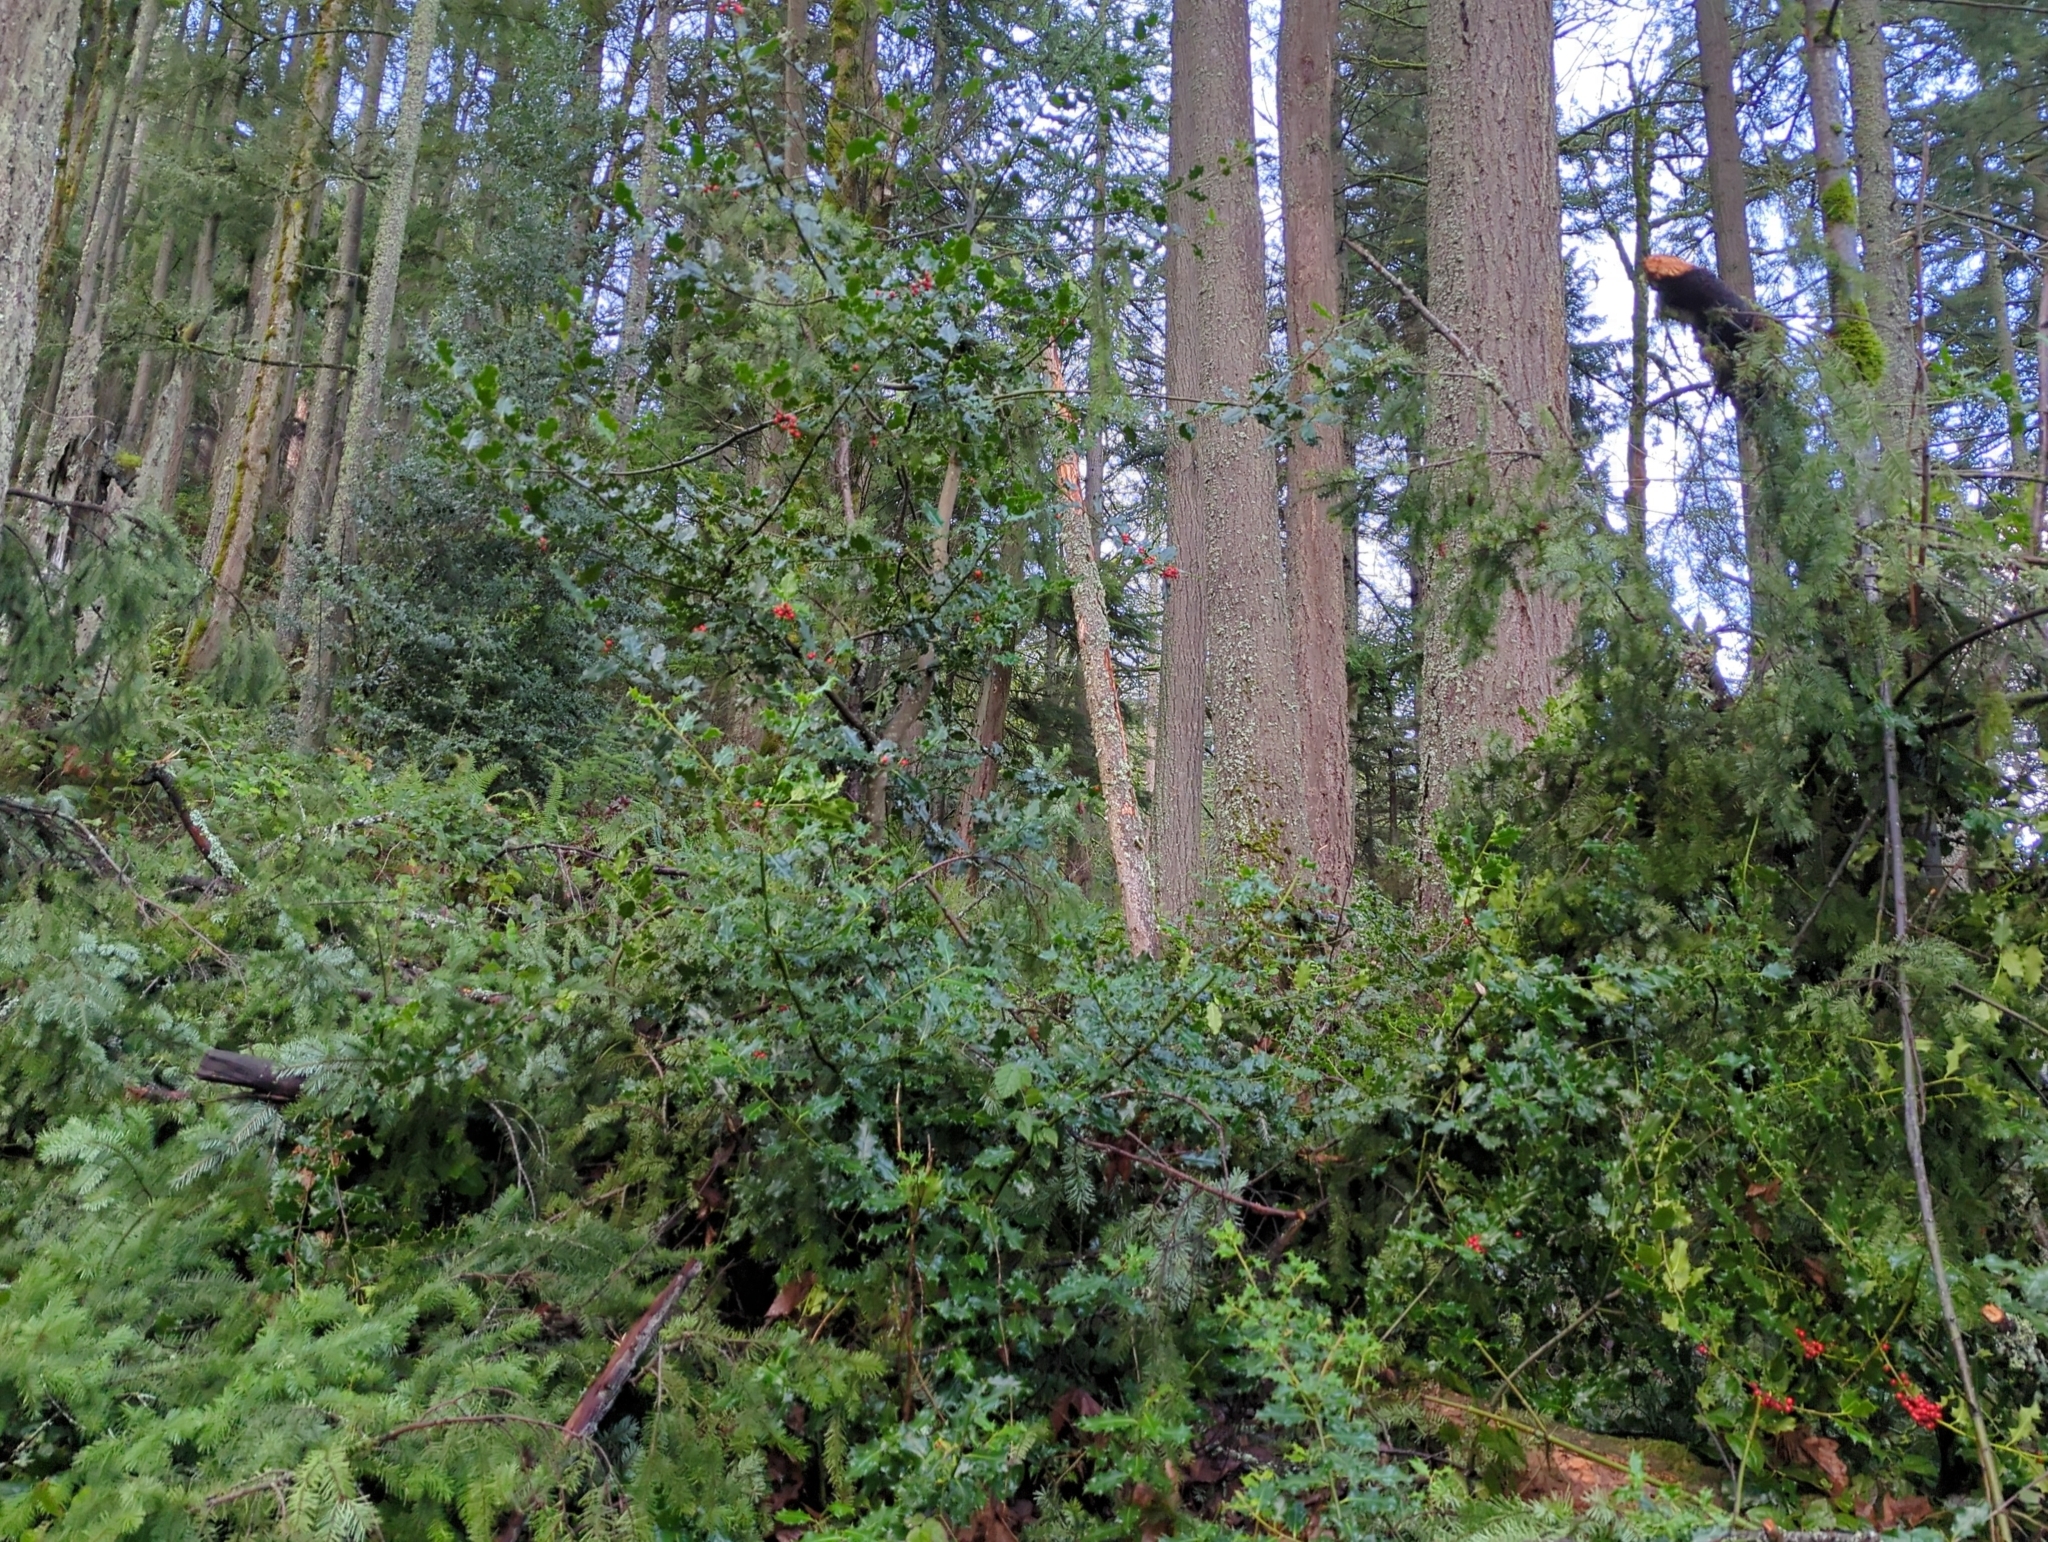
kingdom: Plantae
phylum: Tracheophyta
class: Magnoliopsida
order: Aquifoliales
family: Aquifoliaceae
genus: Ilex
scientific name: Ilex aquifolium
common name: English holly
